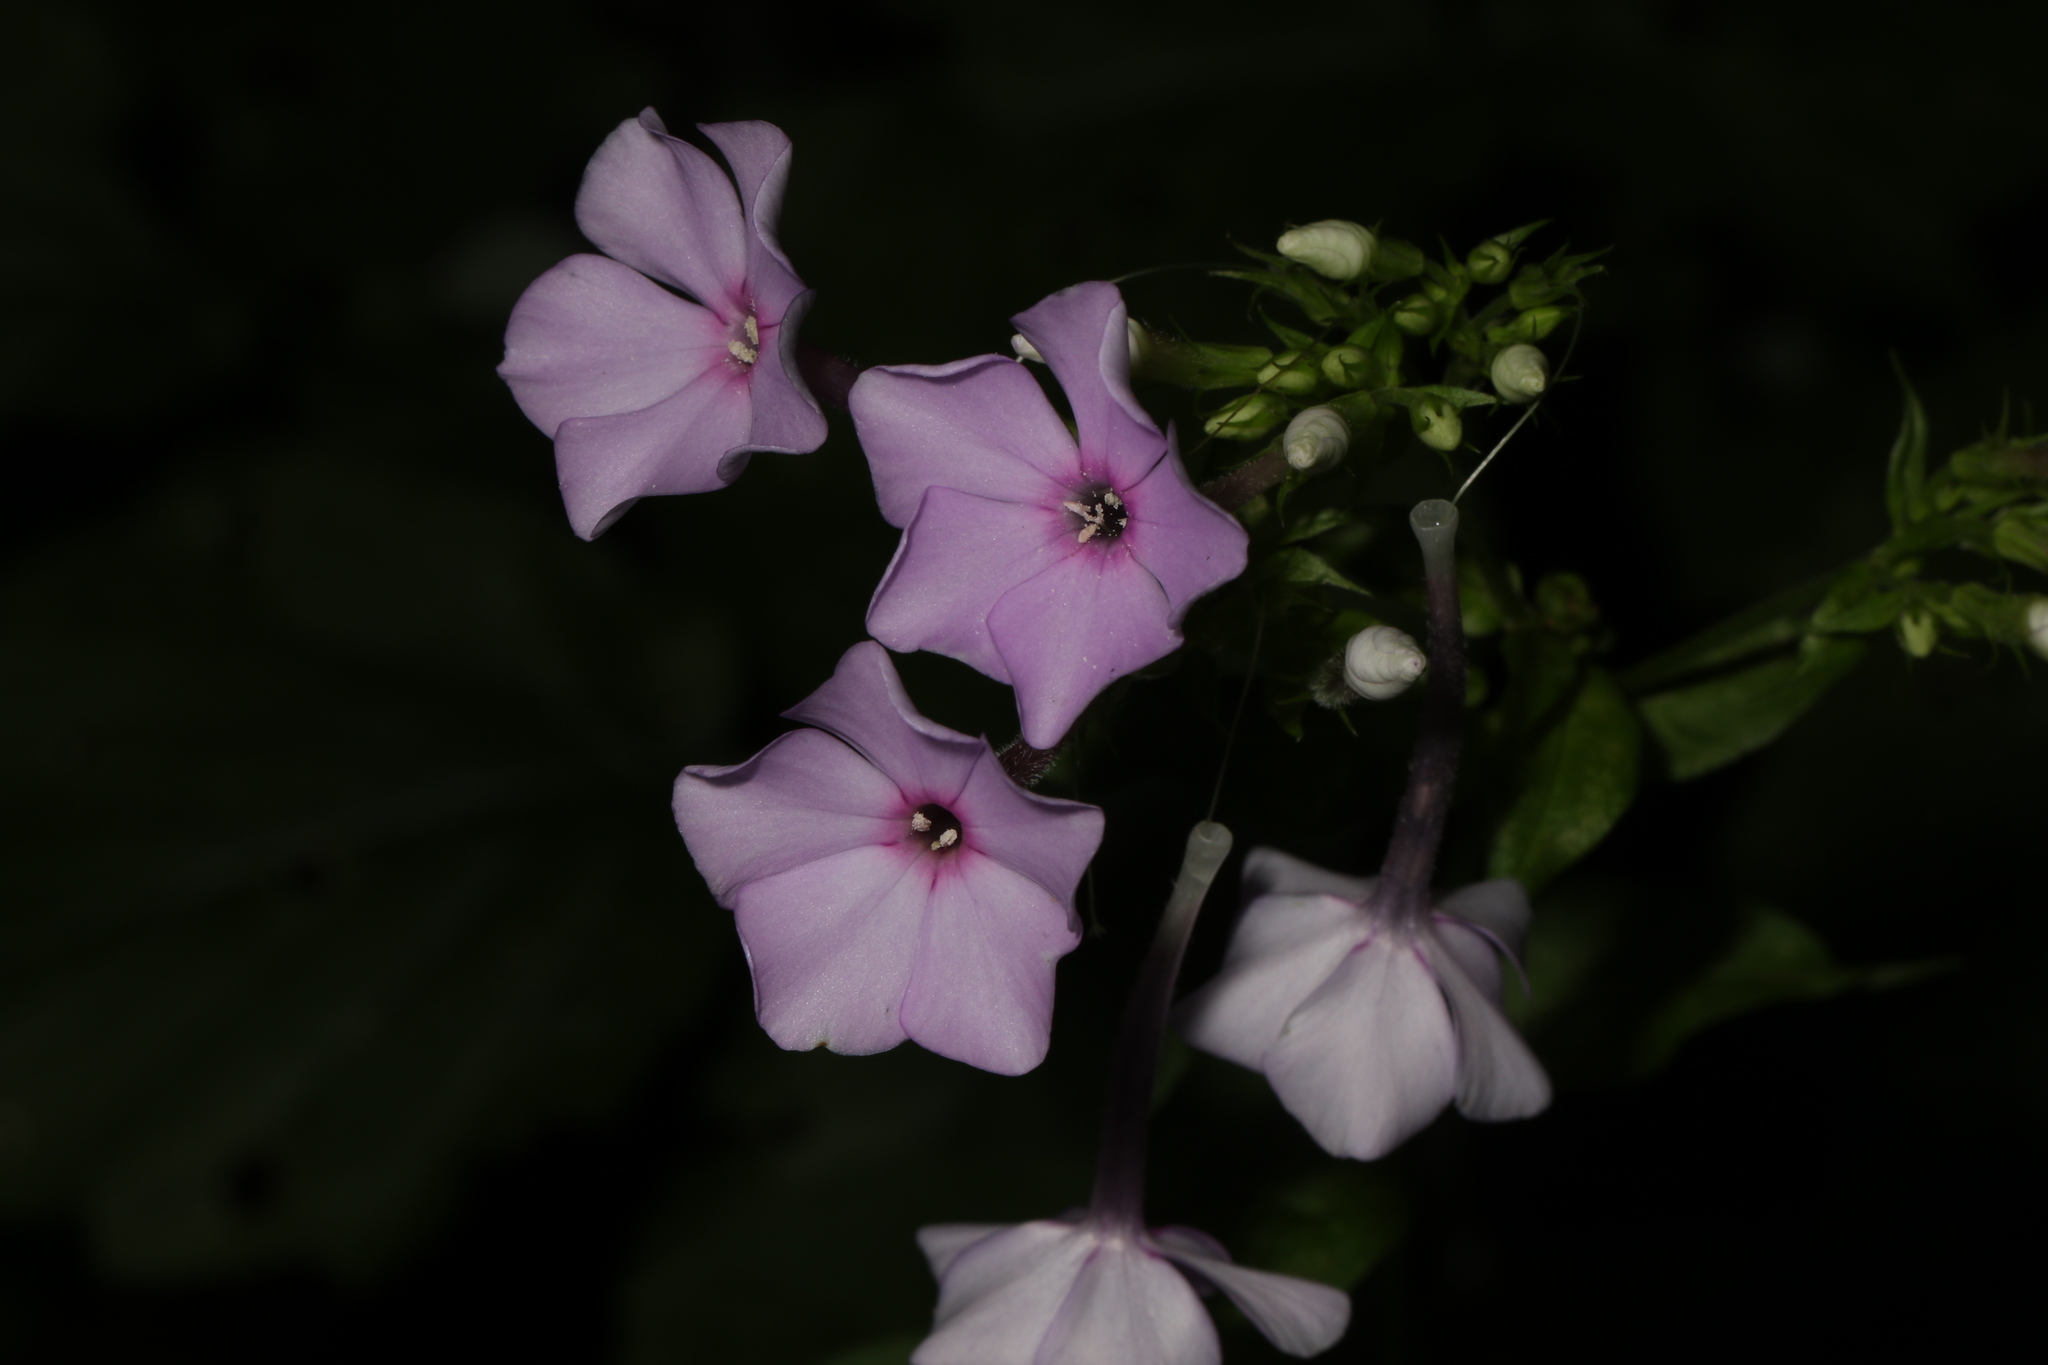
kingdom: Plantae
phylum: Tracheophyta
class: Magnoliopsida
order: Ericales
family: Polemoniaceae
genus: Phlox
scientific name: Phlox paniculata
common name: Fall phlox
